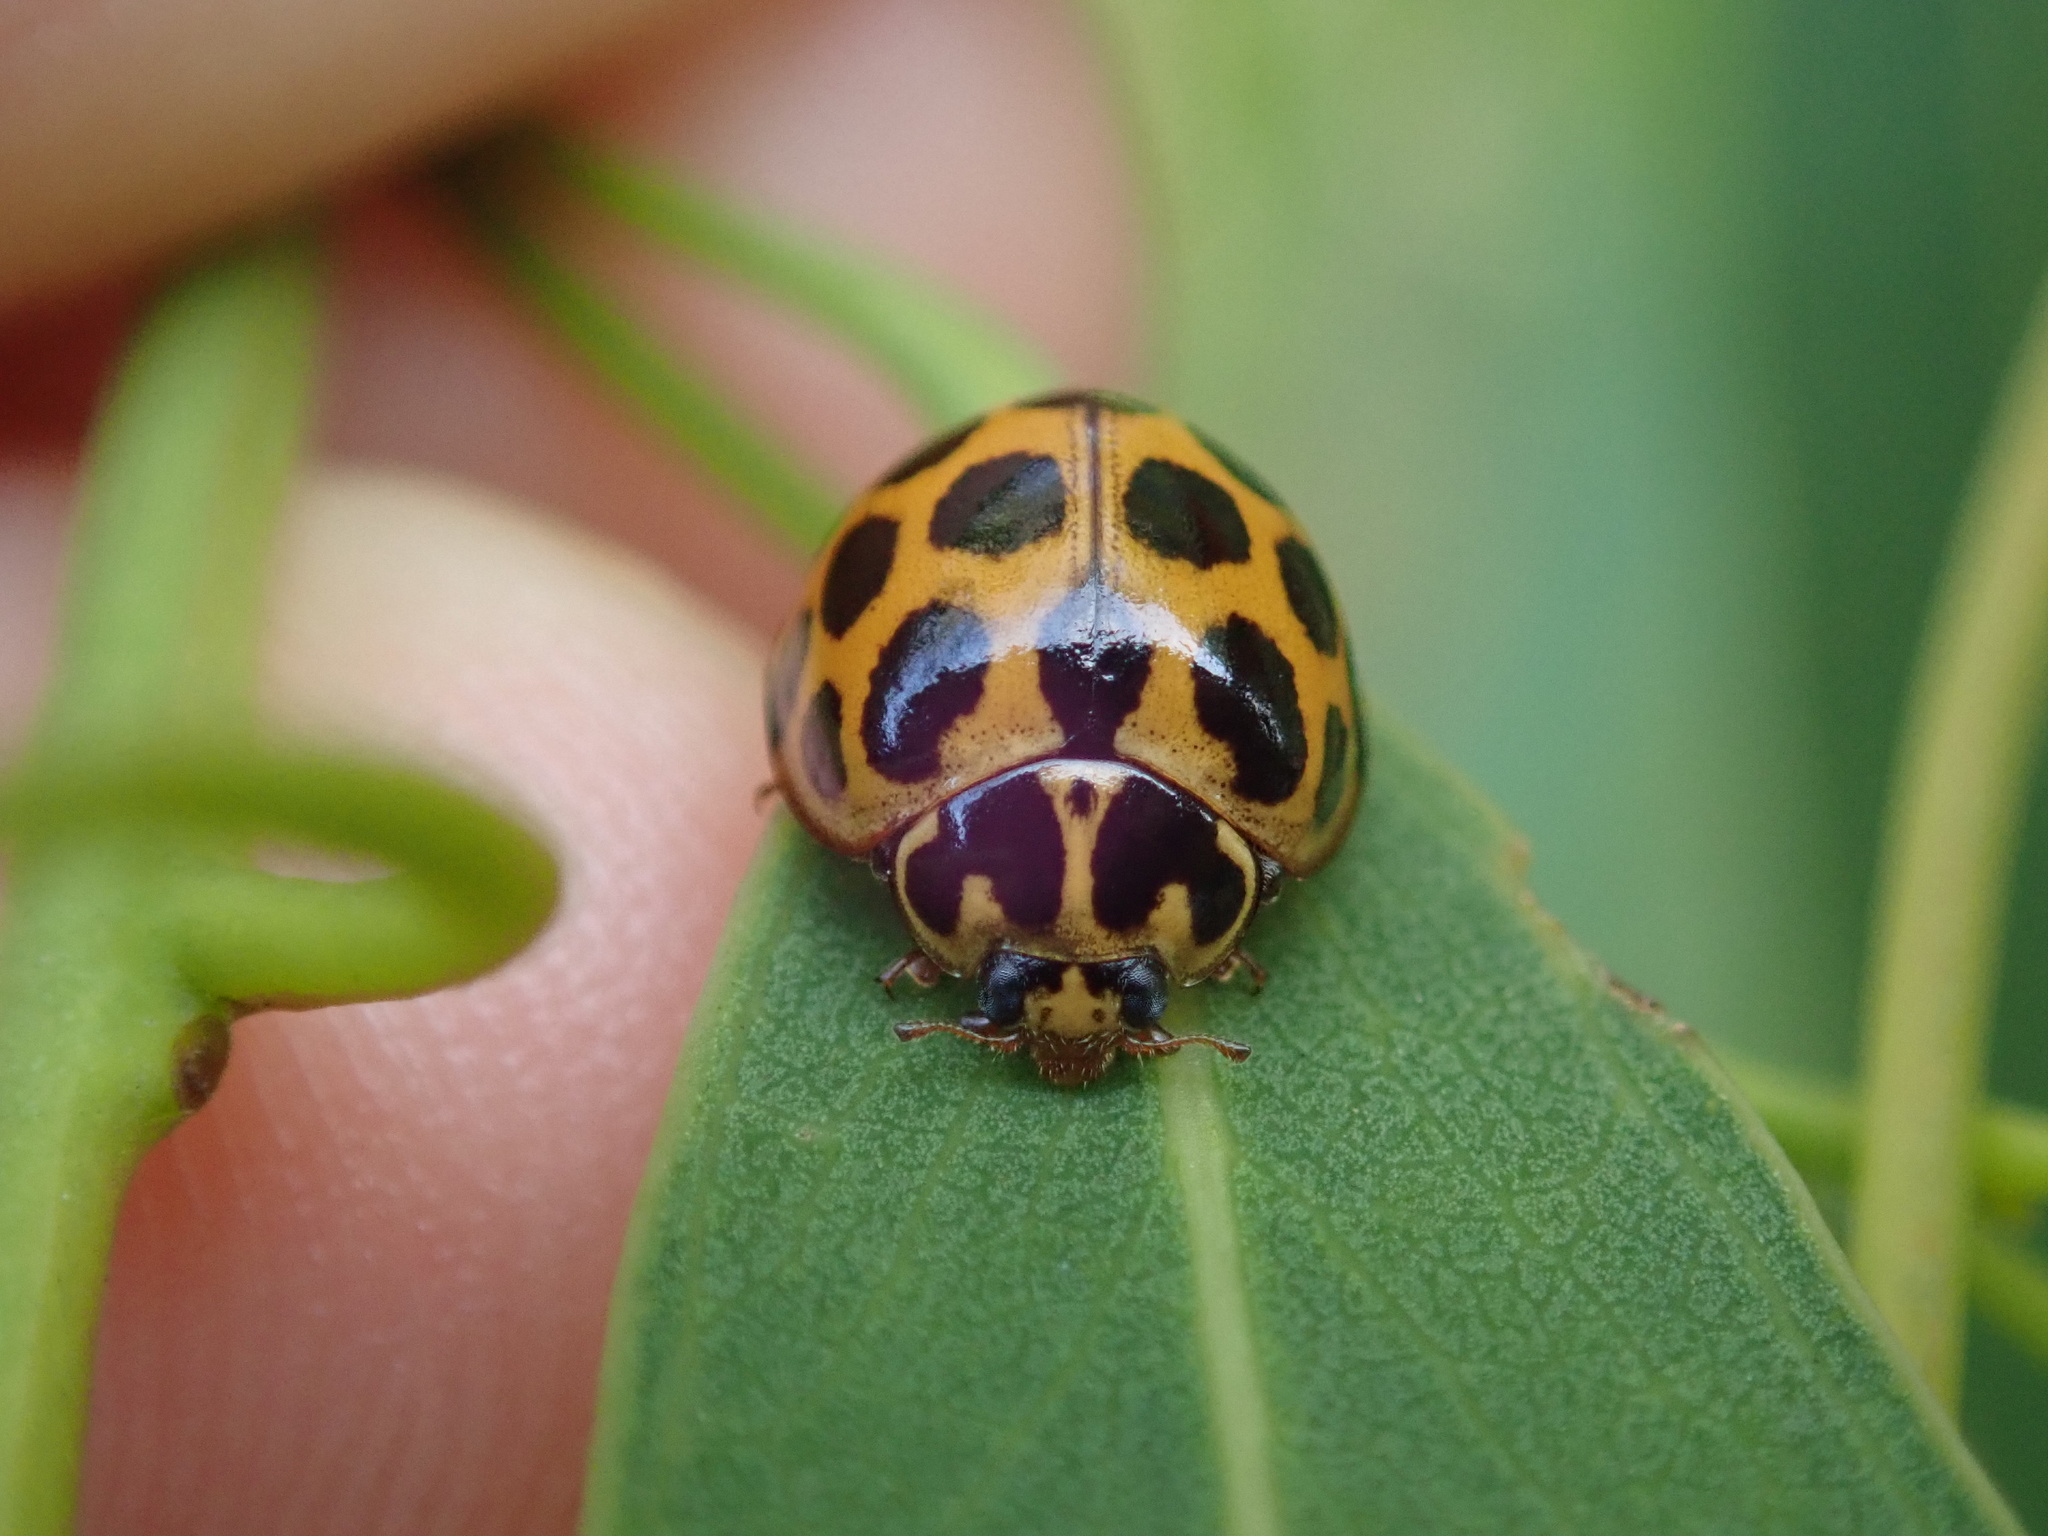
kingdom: Animalia
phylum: Arthropoda
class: Insecta
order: Coleoptera
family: Coccinellidae
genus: Harmonia
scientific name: Harmonia conformis
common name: Common spotted ladybird beetle
